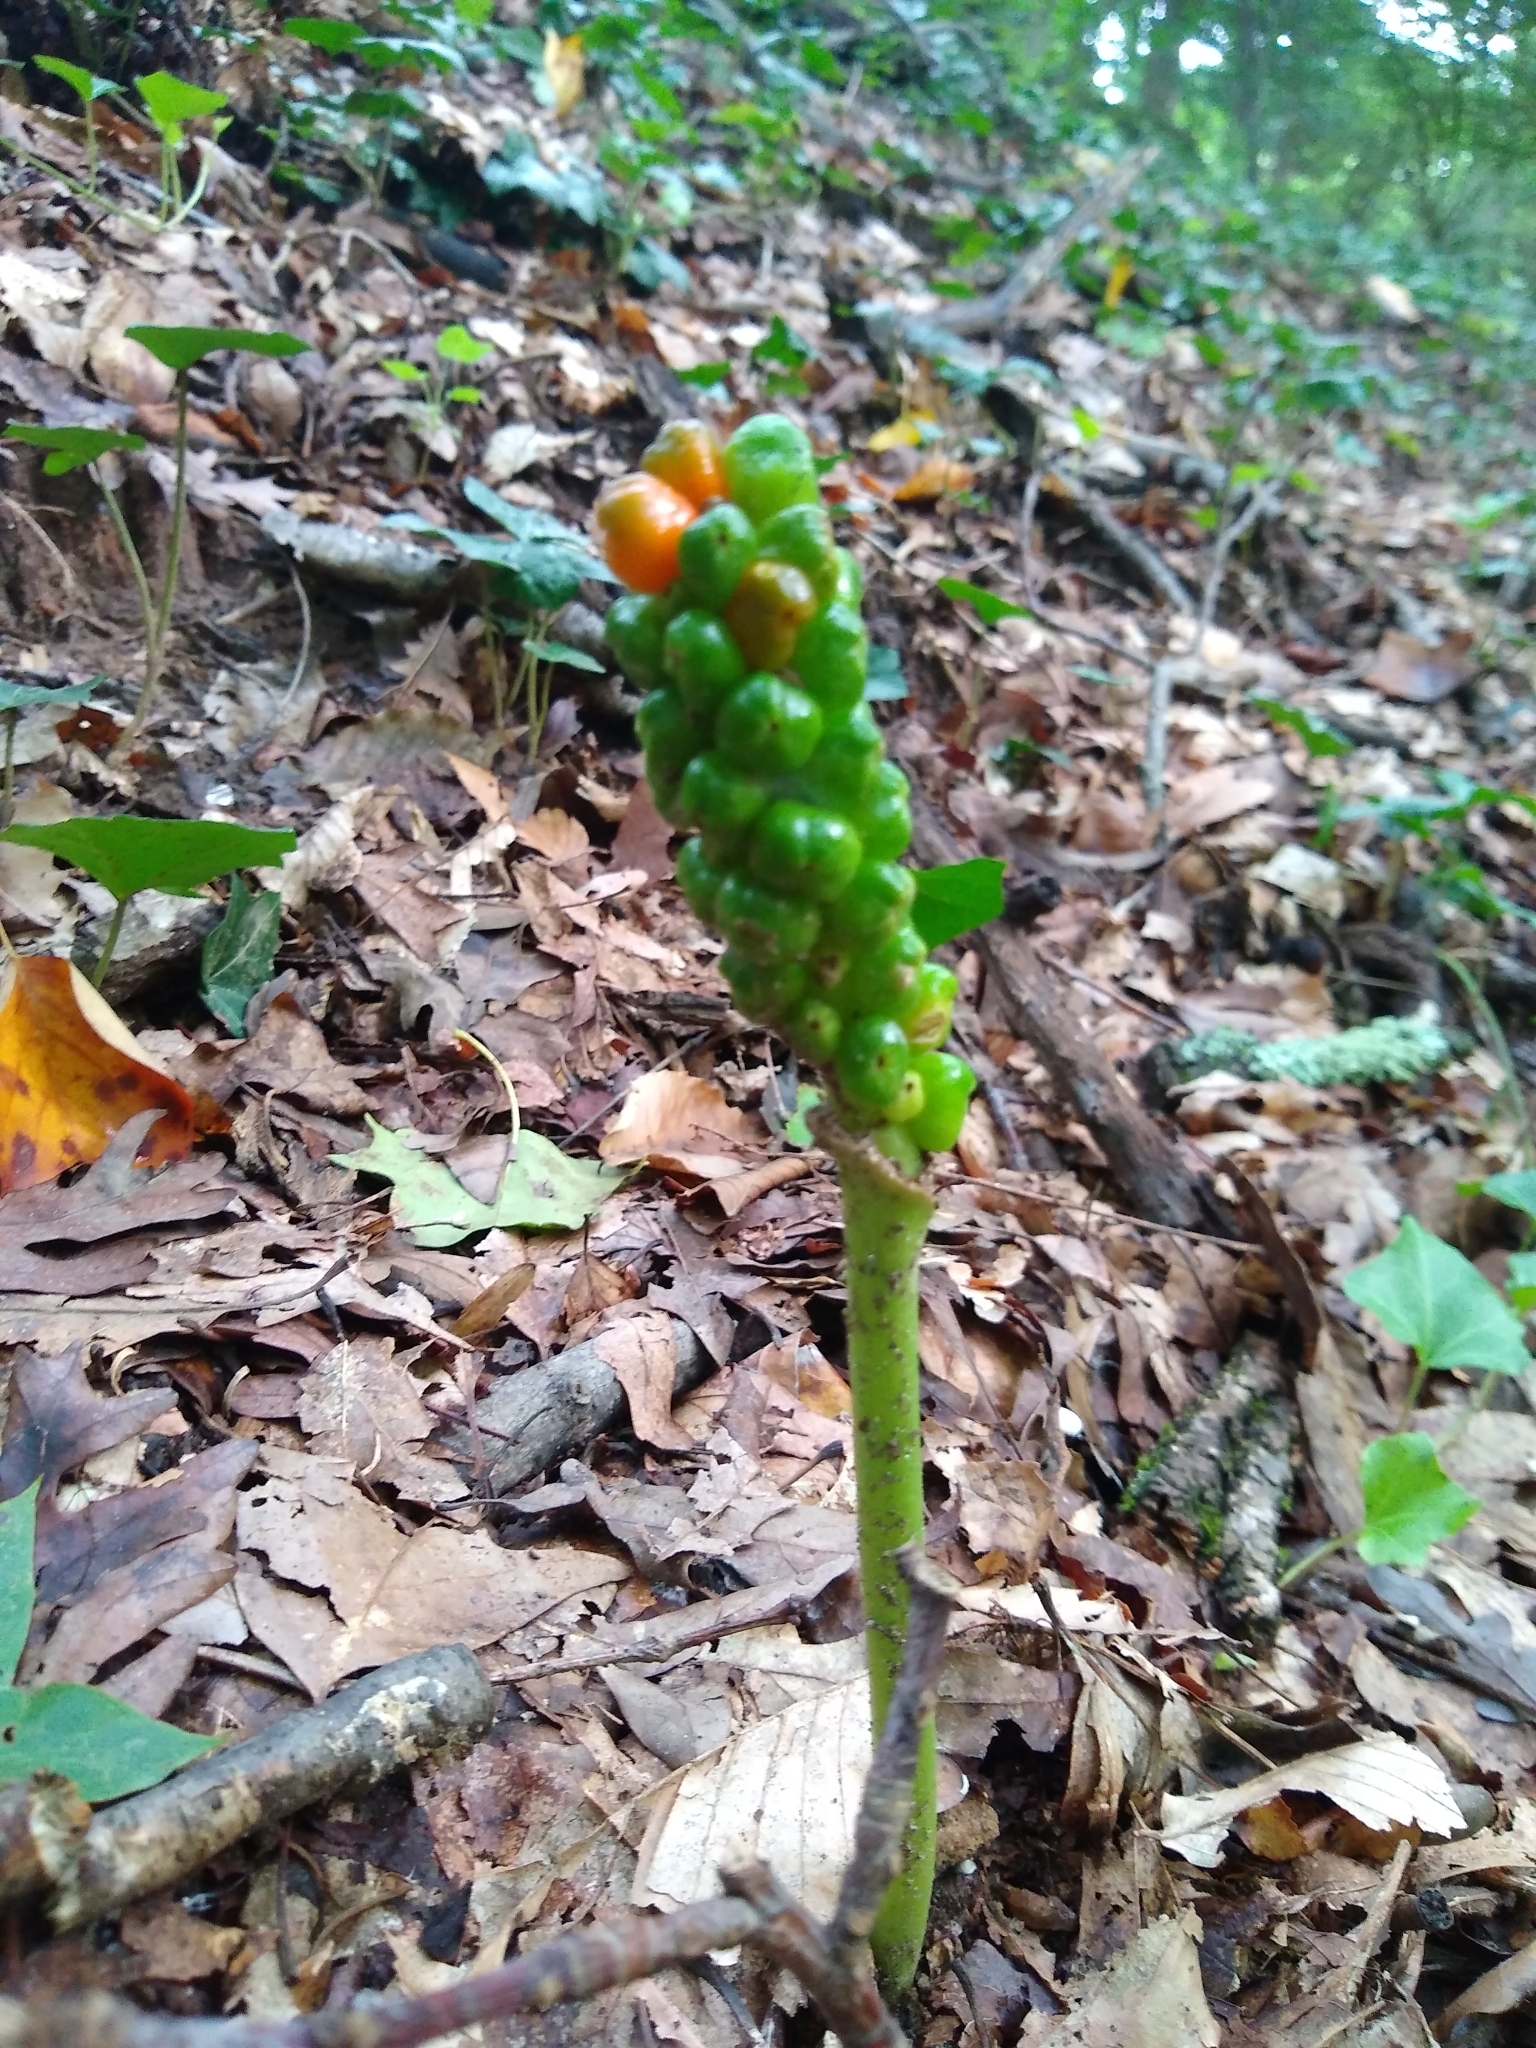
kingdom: Plantae
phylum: Tracheophyta
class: Liliopsida
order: Alismatales
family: Araceae
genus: Arum
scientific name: Arum italicum
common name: Italian lords-and-ladies
